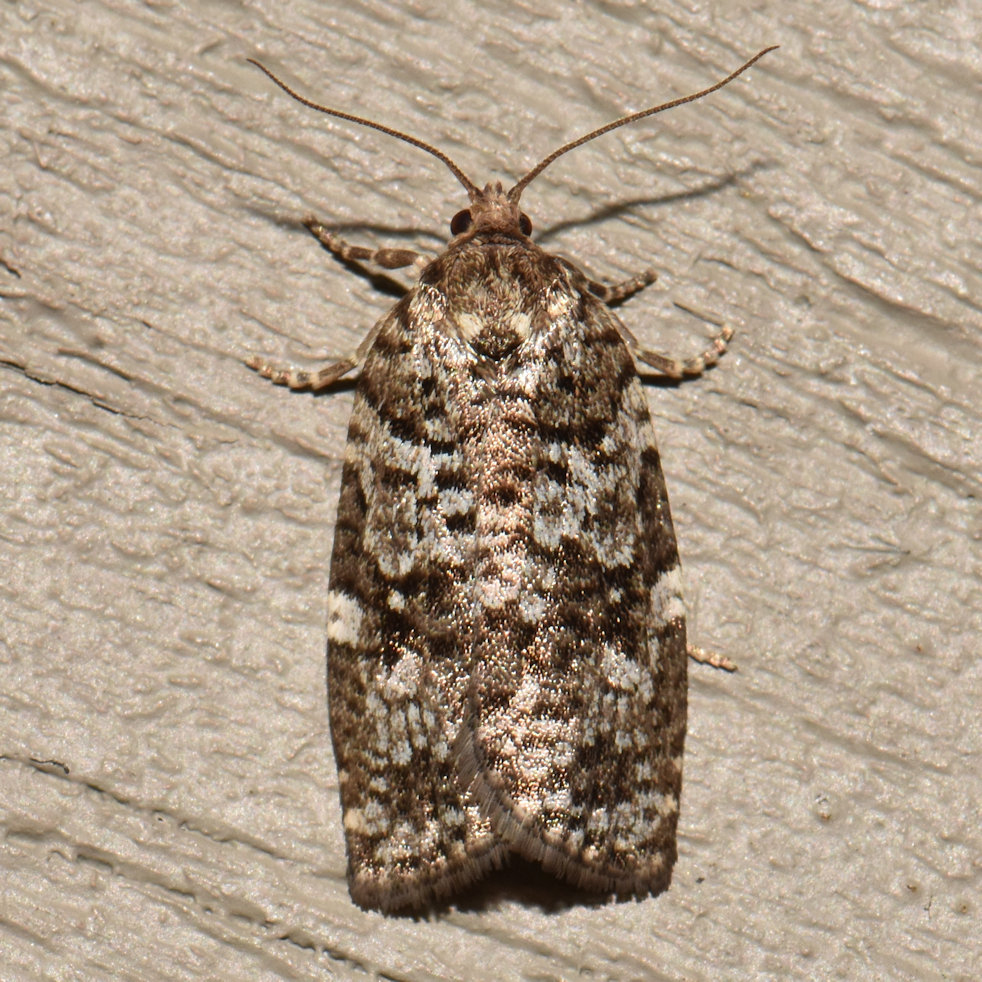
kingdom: Animalia
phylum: Arthropoda
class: Insecta
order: Lepidoptera
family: Tortricidae
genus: Choristoneura
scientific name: Choristoneura fumiferana
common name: Spruce budworm
